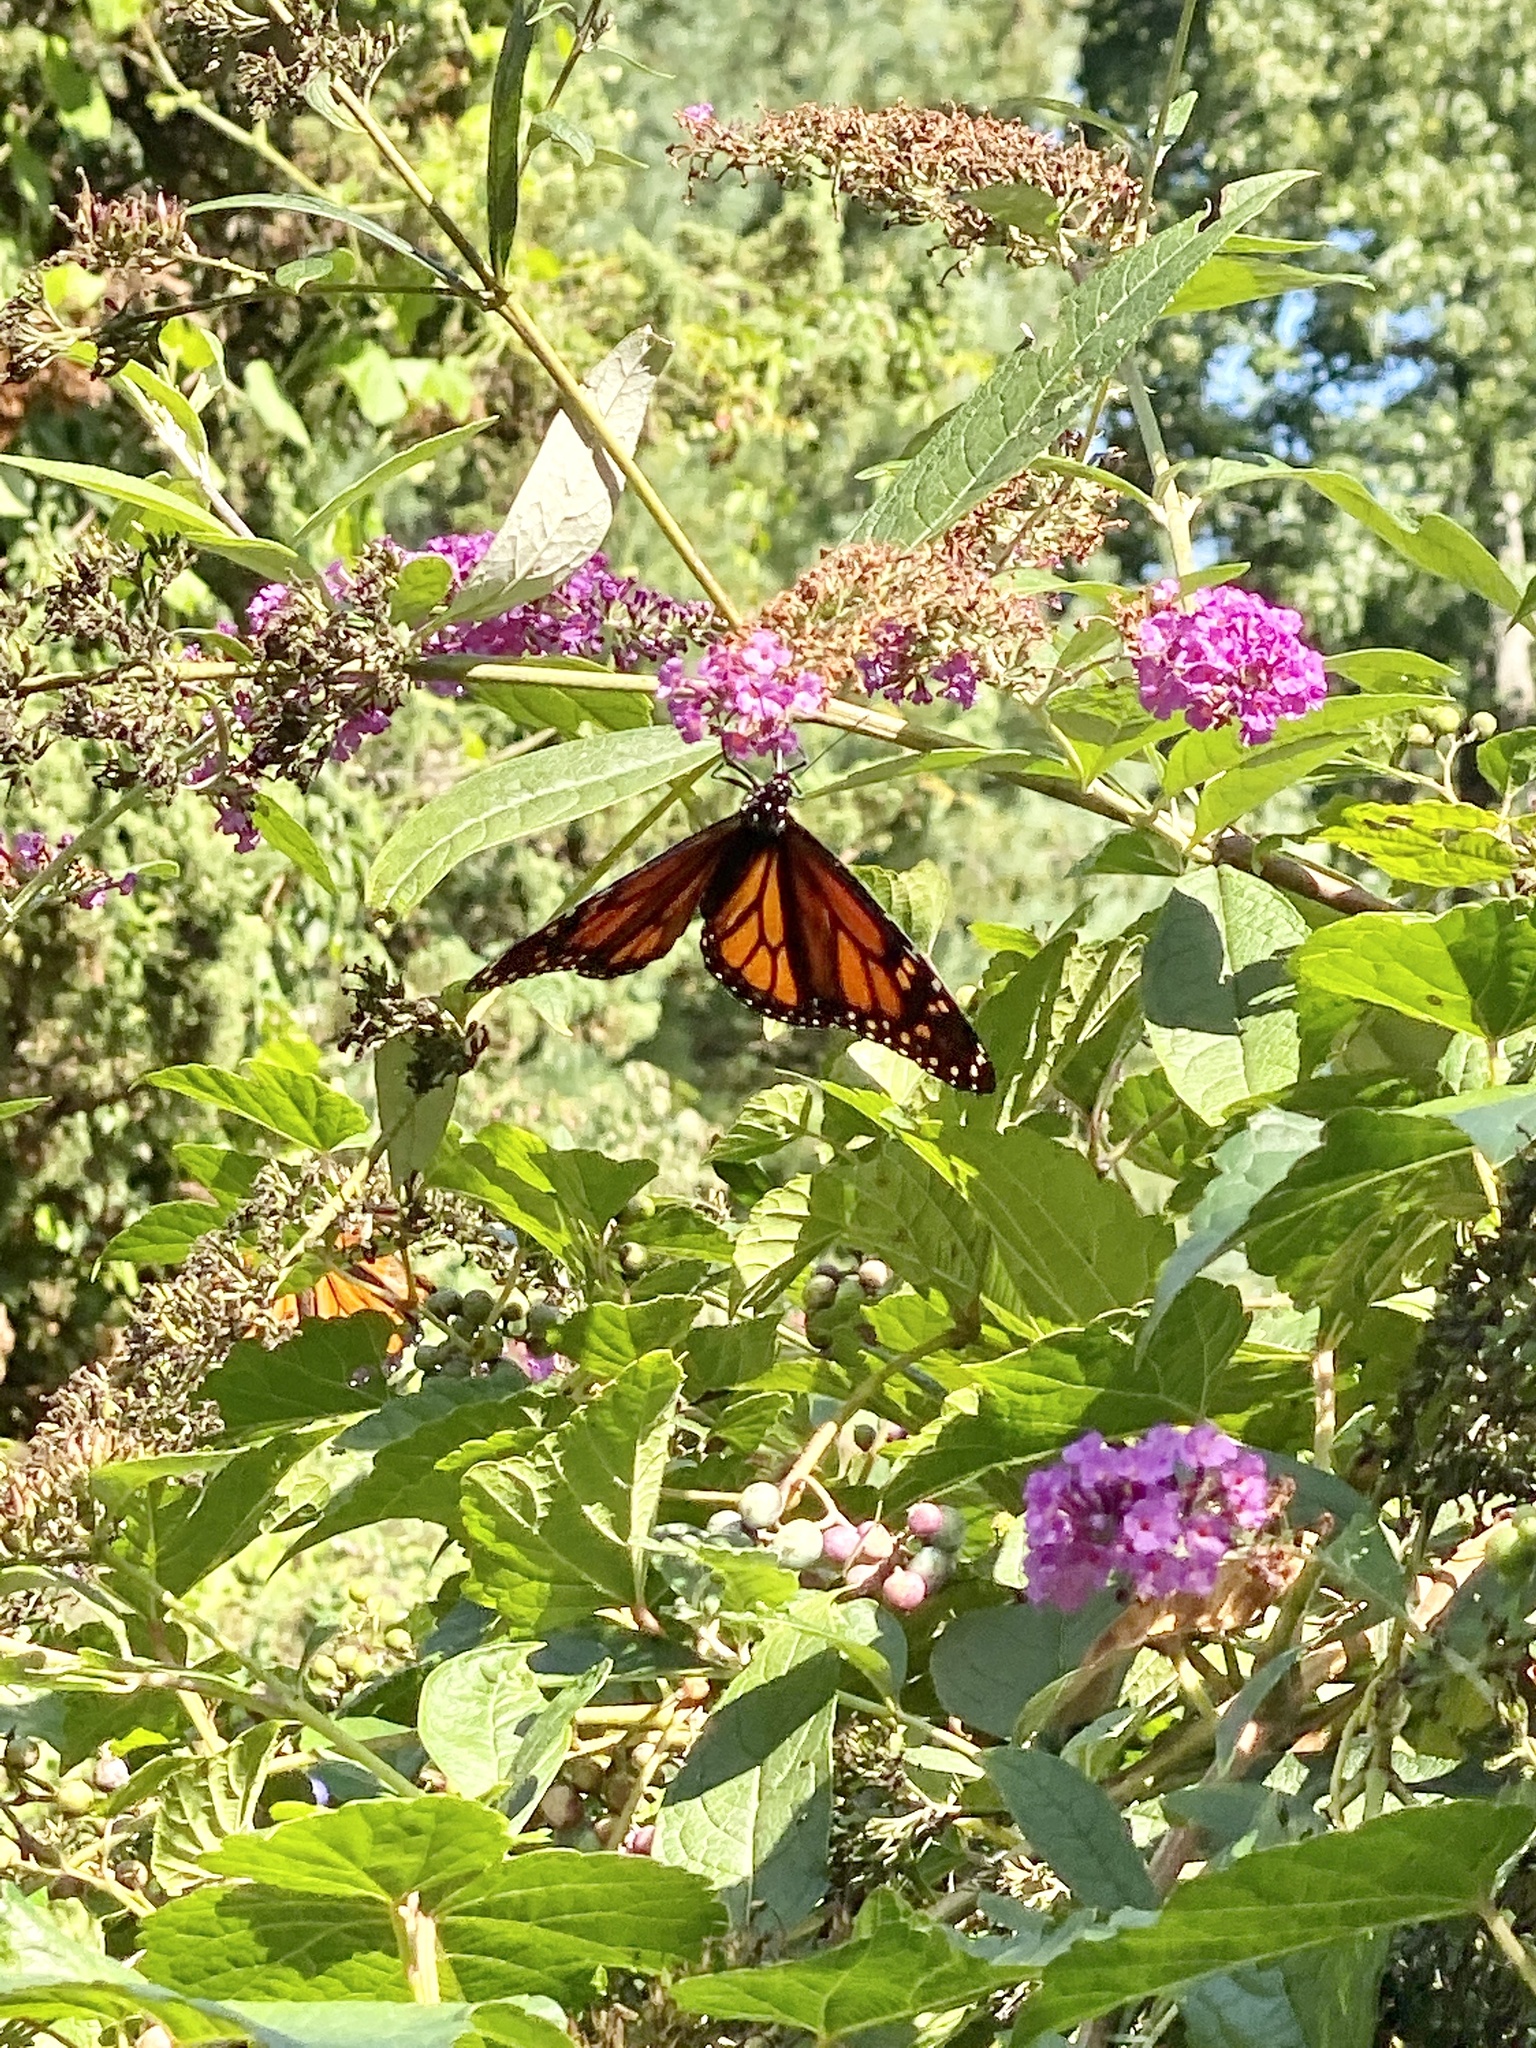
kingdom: Animalia
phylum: Arthropoda
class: Insecta
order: Lepidoptera
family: Nymphalidae
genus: Danaus
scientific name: Danaus plexippus
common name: Monarch
